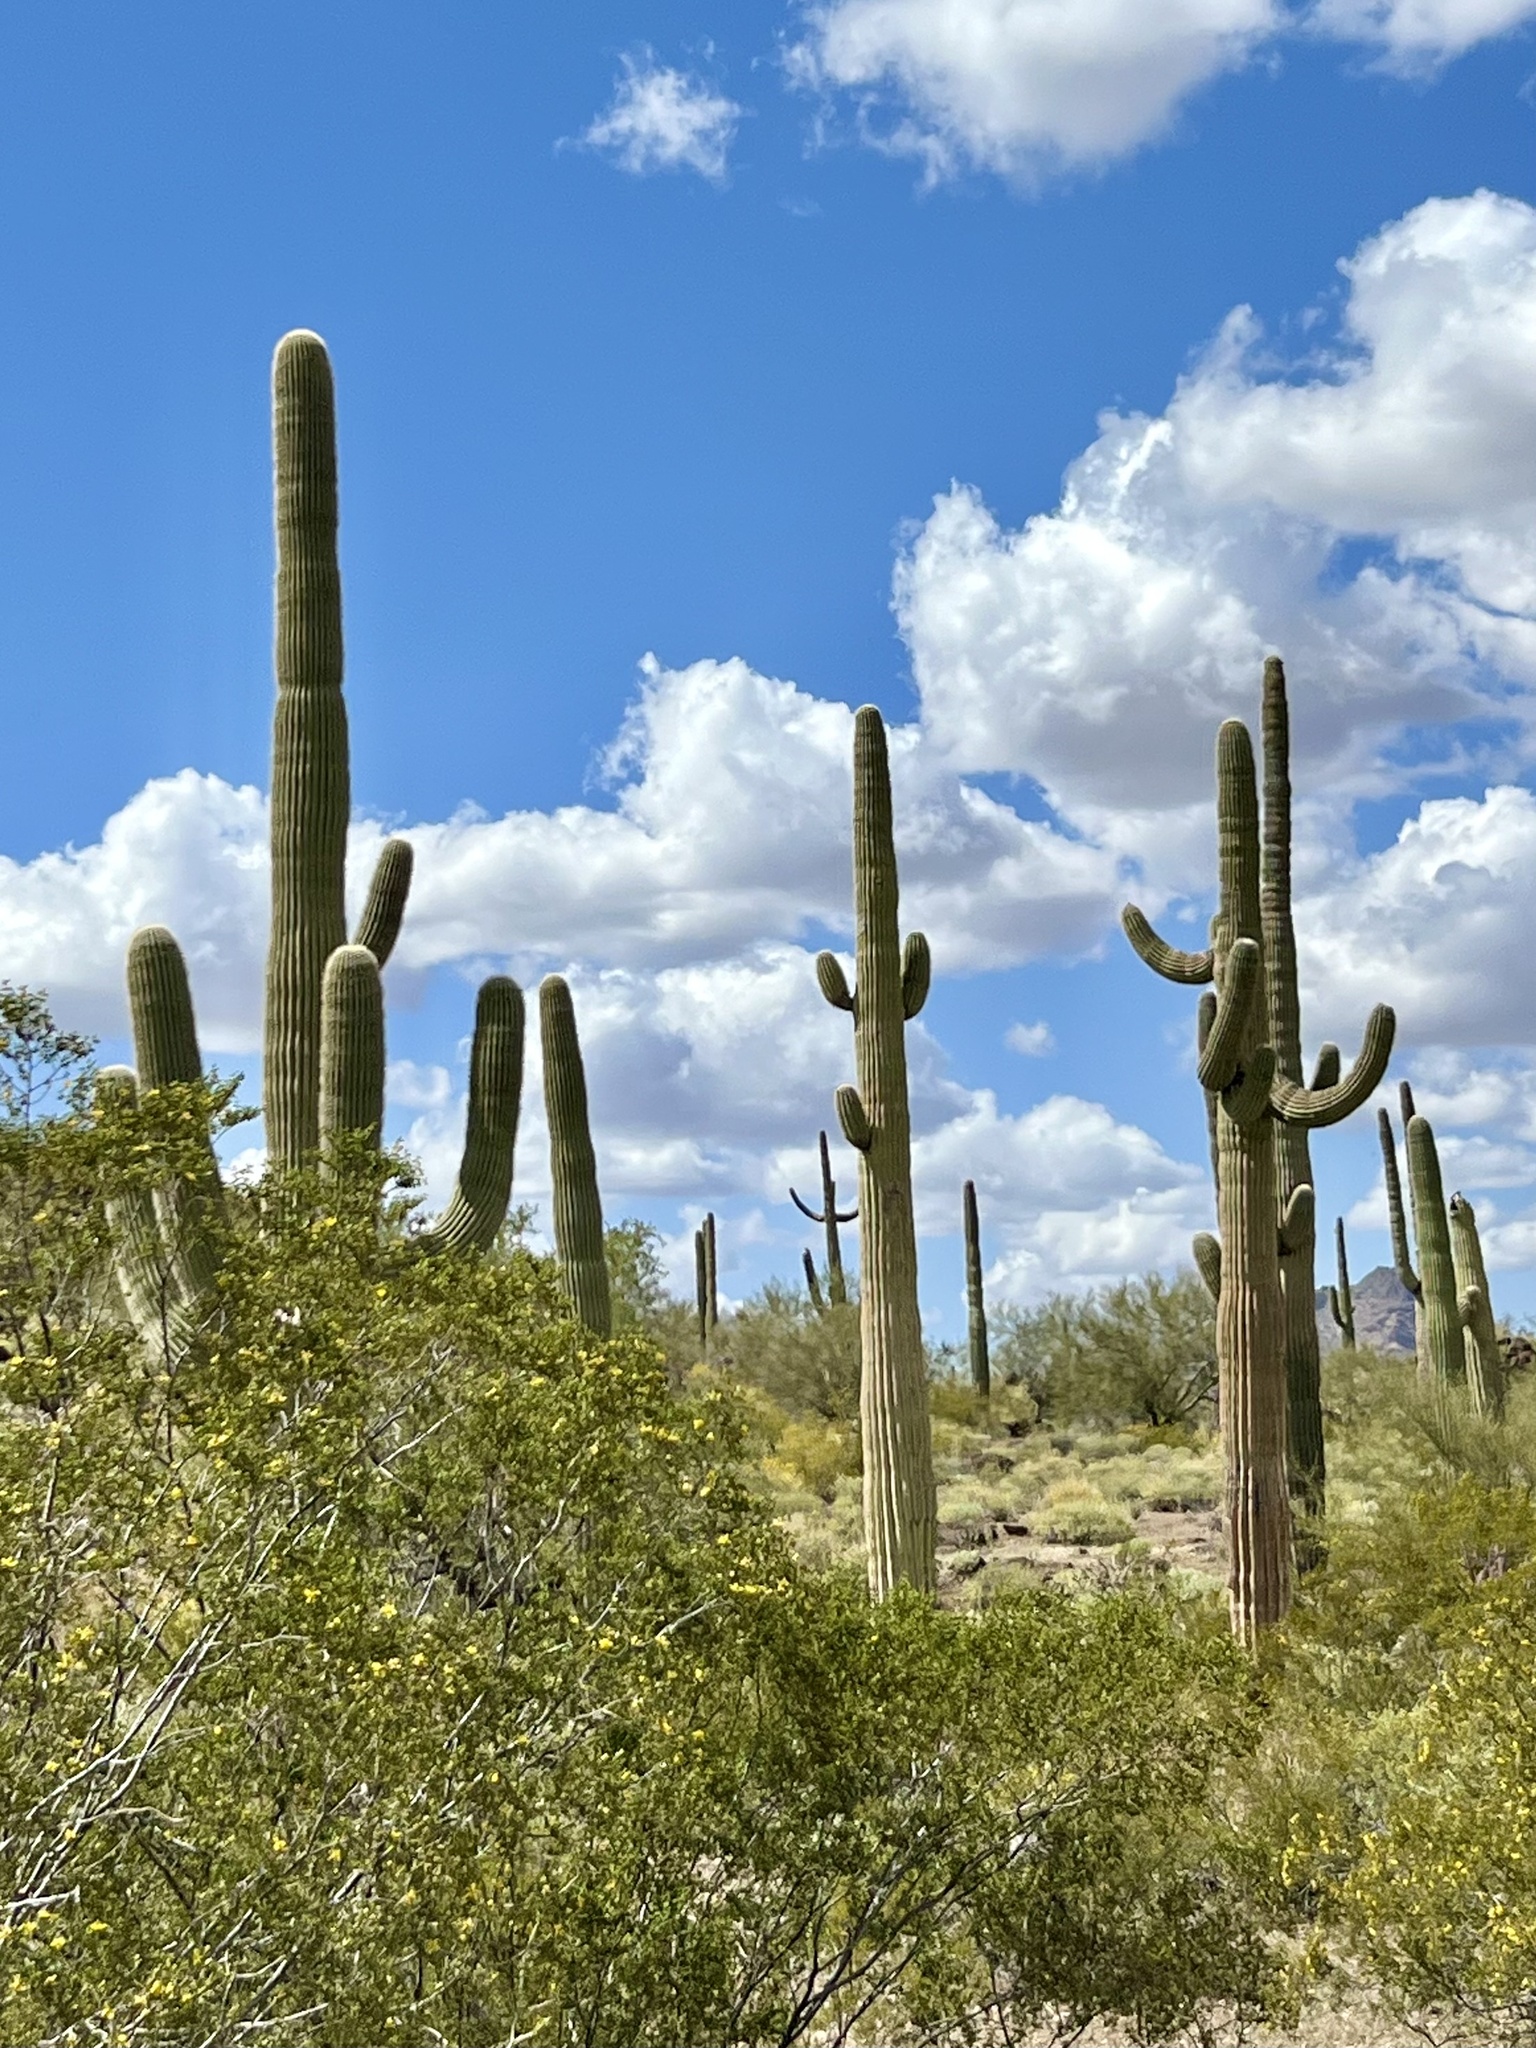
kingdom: Plantae
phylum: Tracheophyta
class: Magnoliopsida
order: Caryophyllales
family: Cactaceae
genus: Carnegiea
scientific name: Carnegiea gigantea
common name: Saguaro
